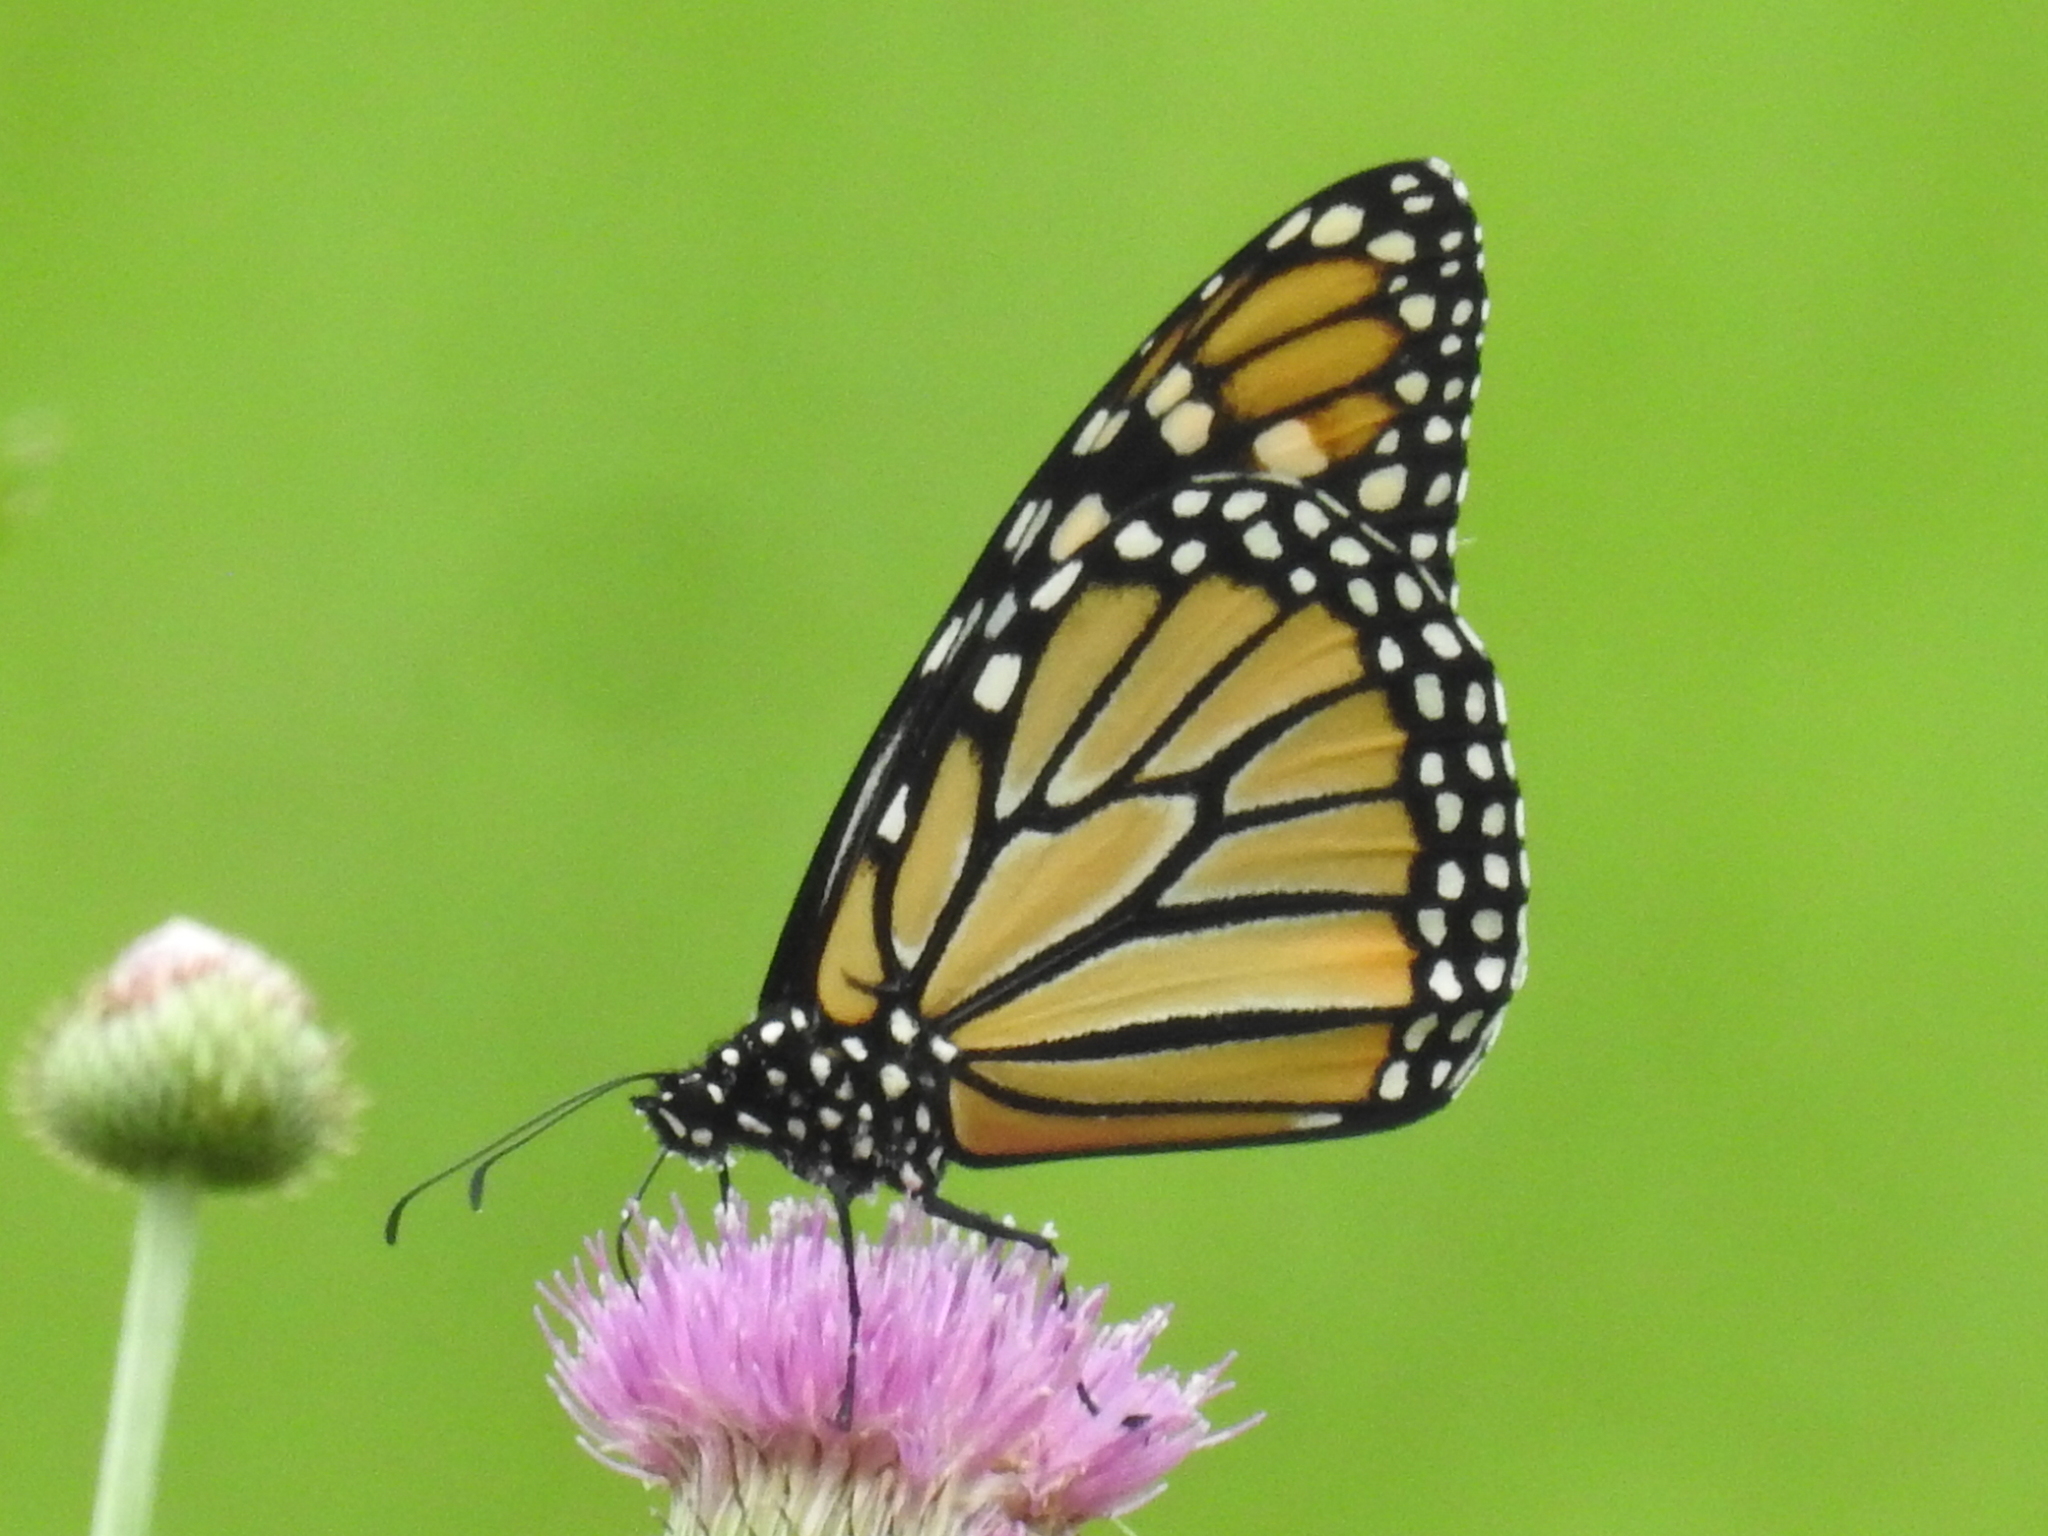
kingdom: Animalia
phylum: Arthropoda
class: Insecta
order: Lepidoptera
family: Nymphalidae
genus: Danaus
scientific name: Danaus plexippus
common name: Monarch
